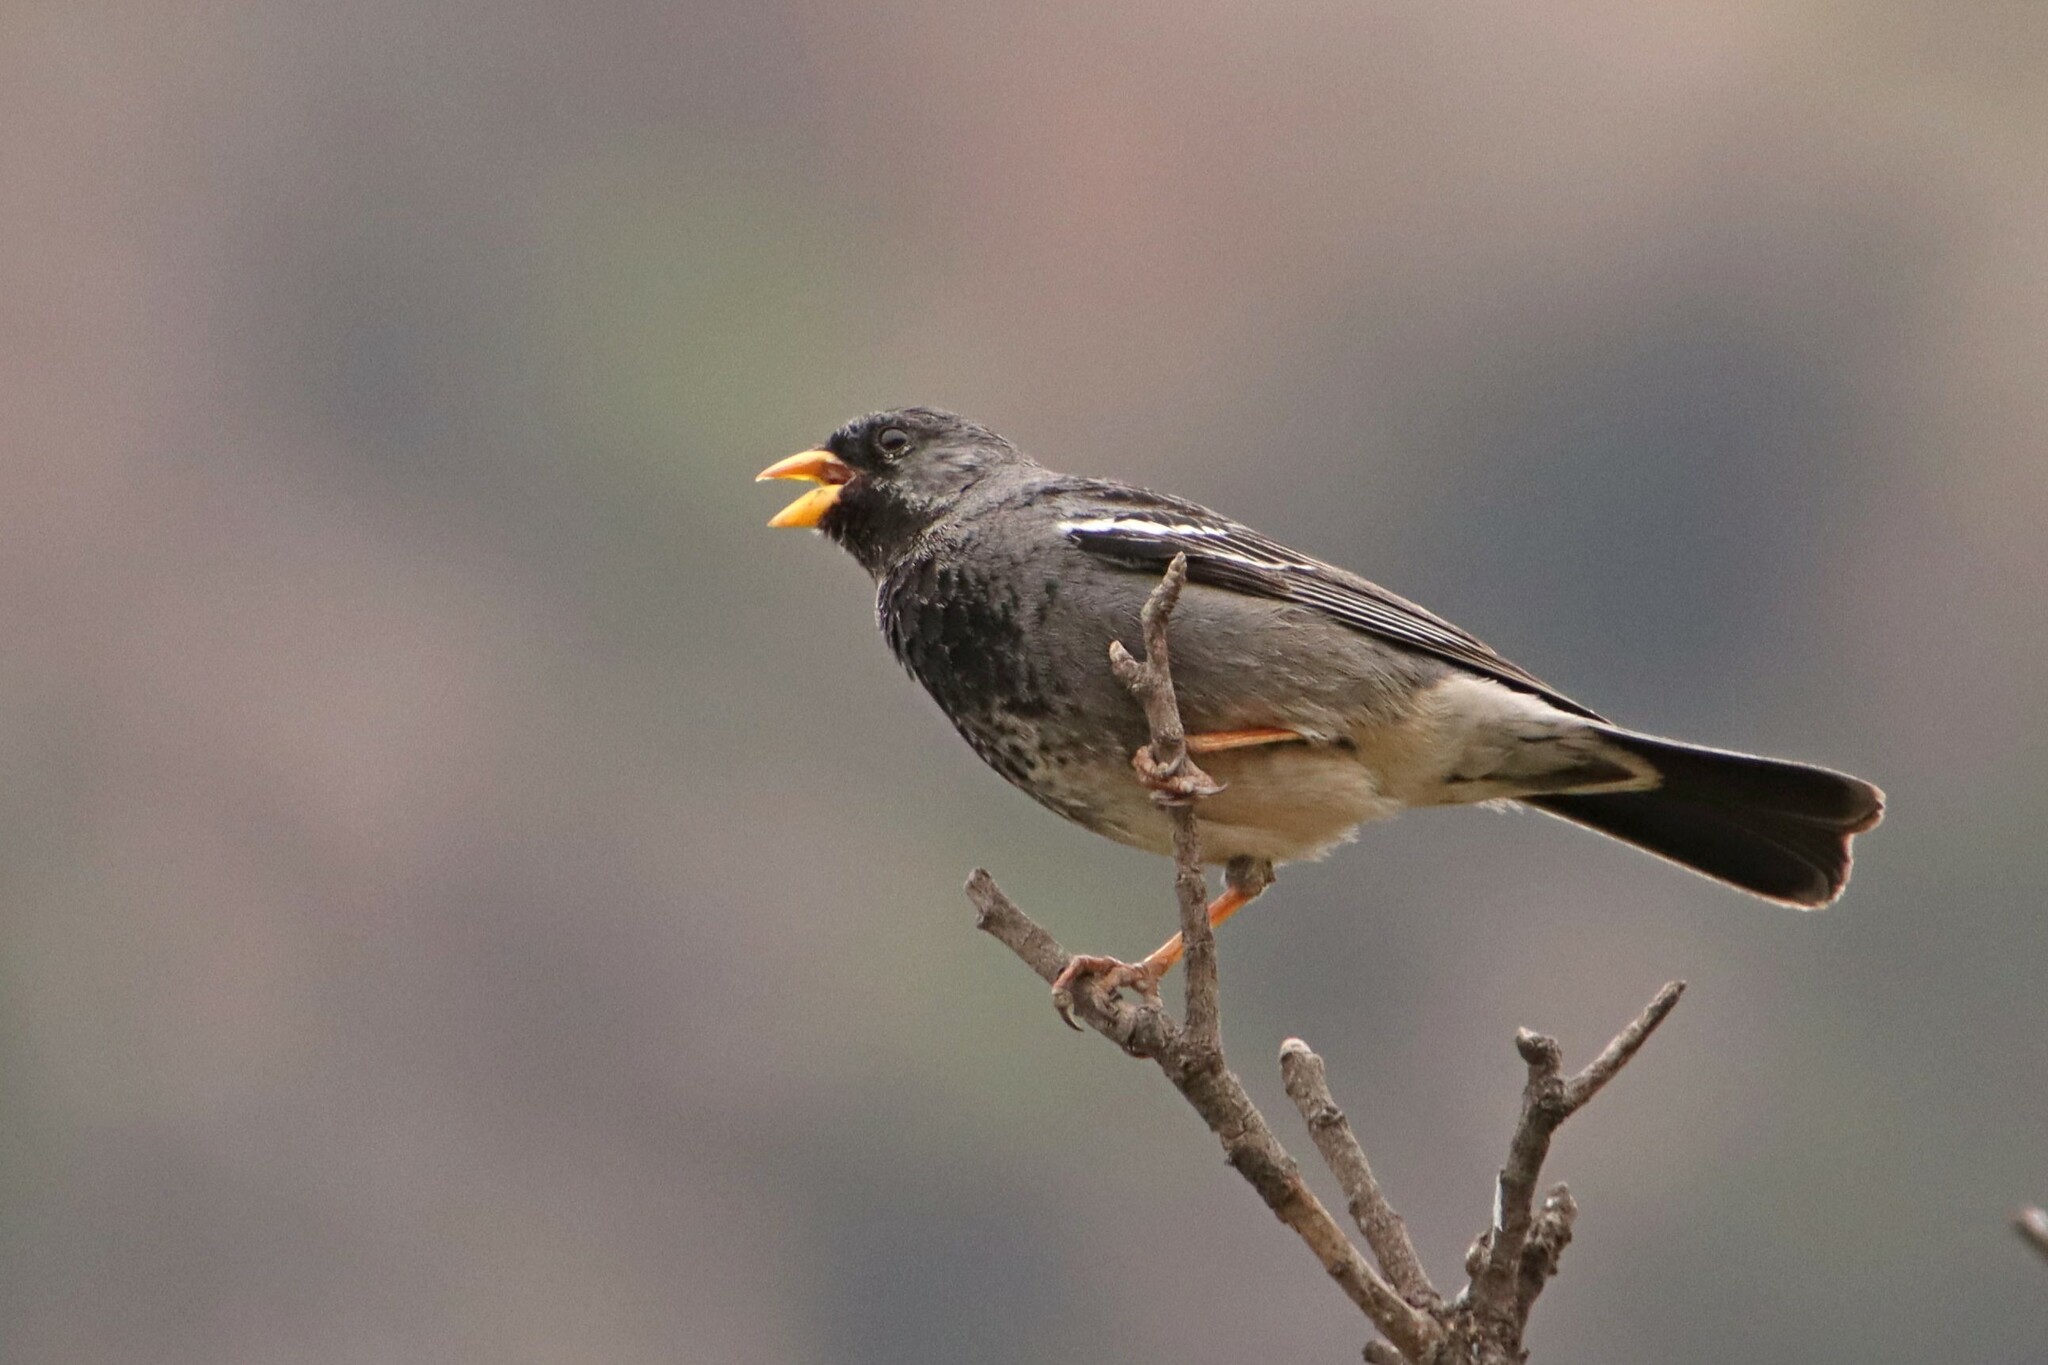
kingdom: Animalia
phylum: Chordata
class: Aves
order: Passeriformes
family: Thraupidae
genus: Rhopospina
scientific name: Rhopospina fruticeti
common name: Mourning sierra finch
